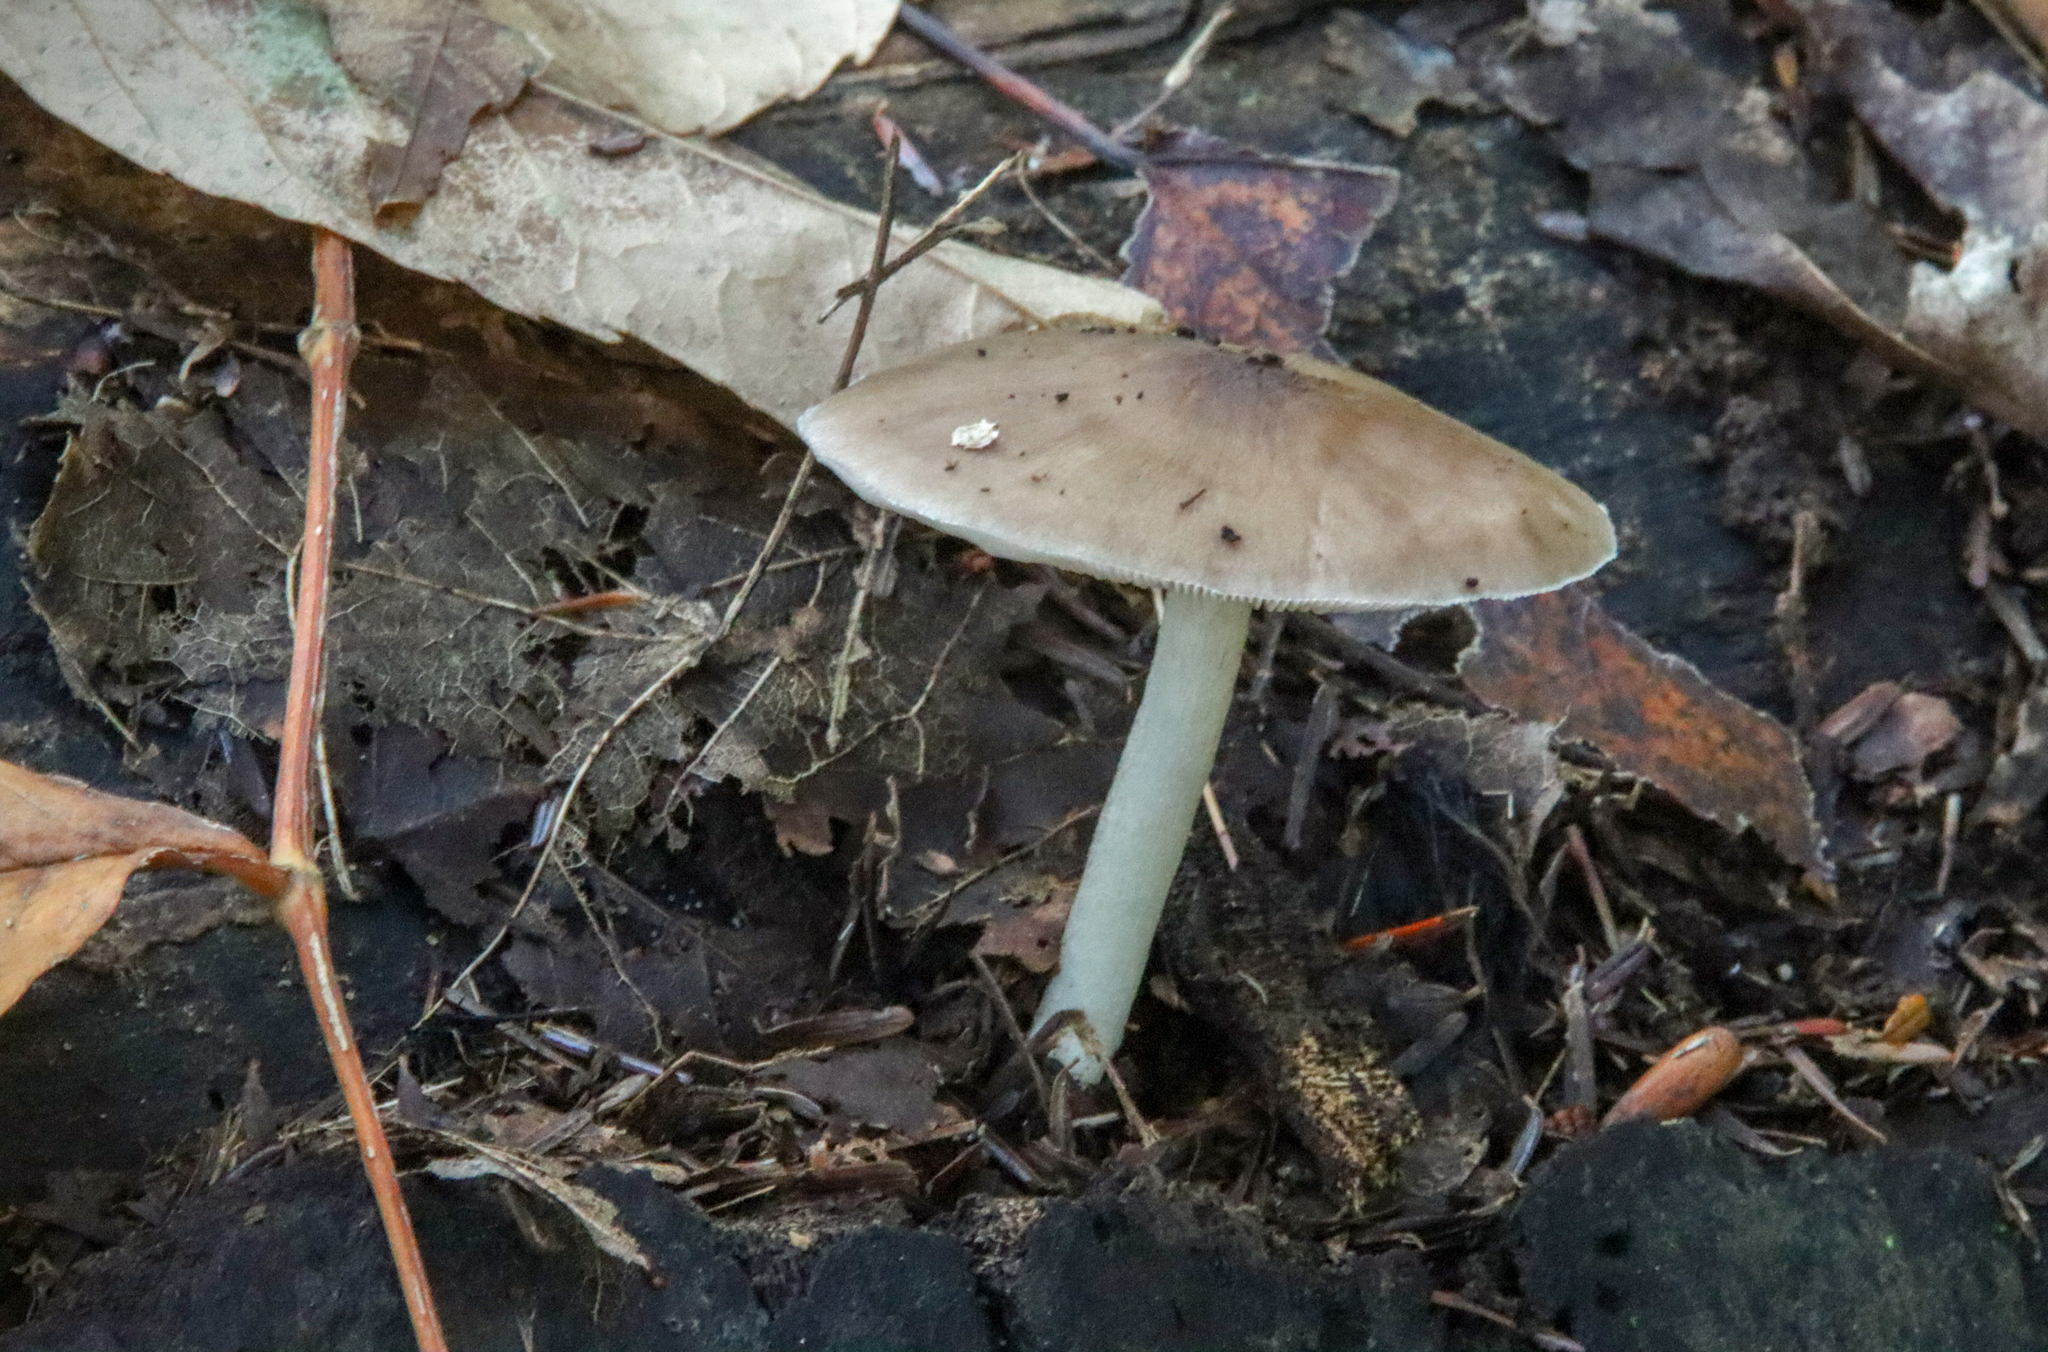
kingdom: Fungi
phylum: Basidiomycota
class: Agaricomycetes
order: Agaricales
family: Pluteaceae
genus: Pluteus
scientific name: Pluteus cervinus
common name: Deer shield
